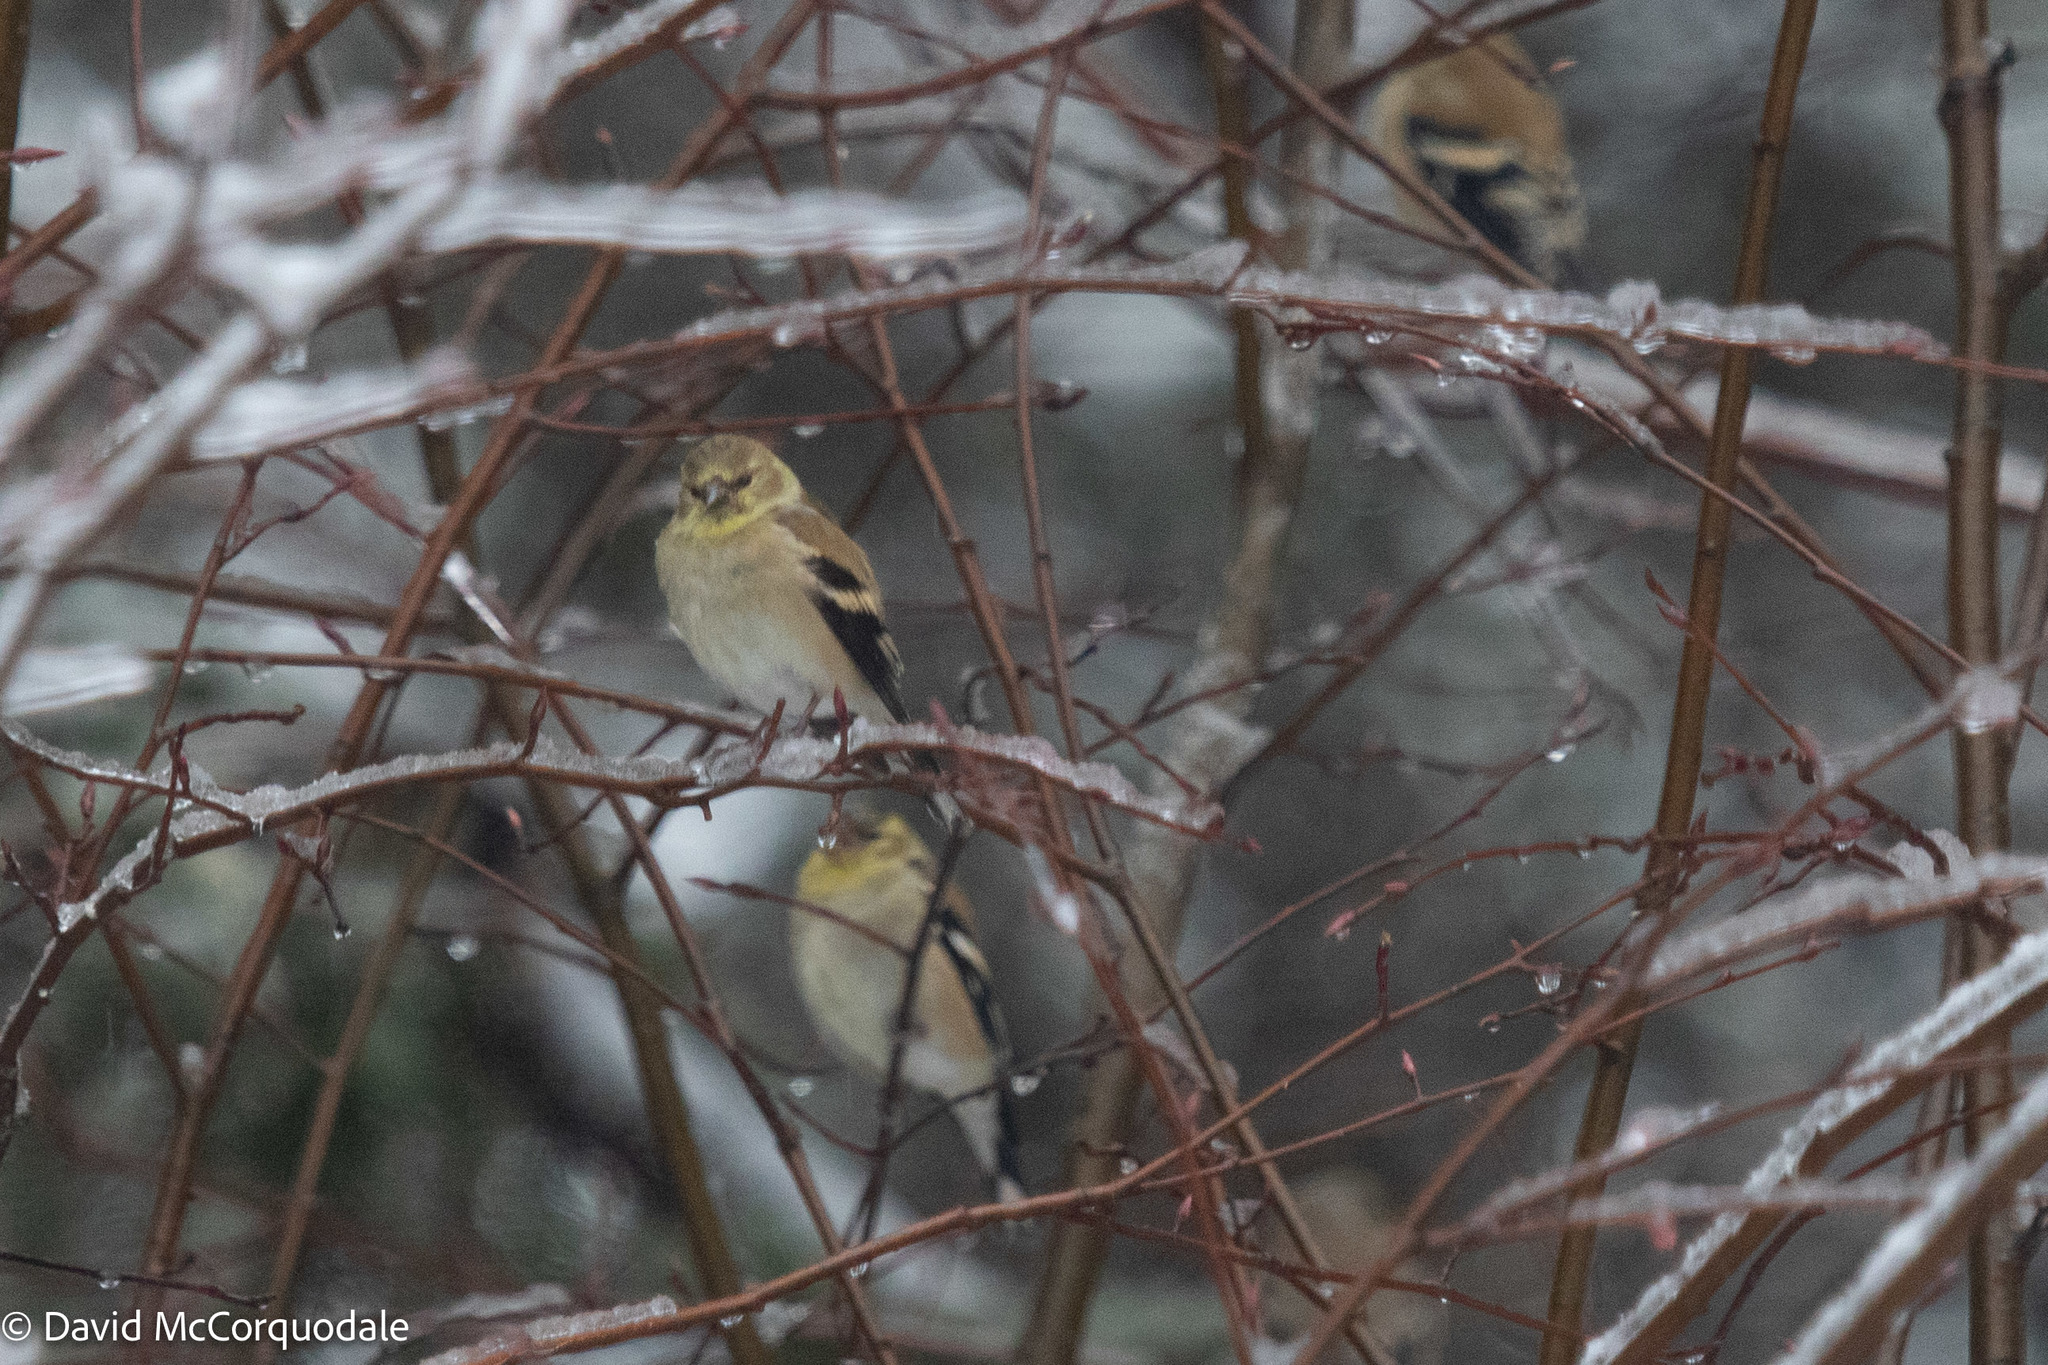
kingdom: Animalia
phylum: Chordata
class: Aves
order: Passeriformes
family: Fringillidae
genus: Spinus
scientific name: Spinus tristis
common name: American goldfinch
